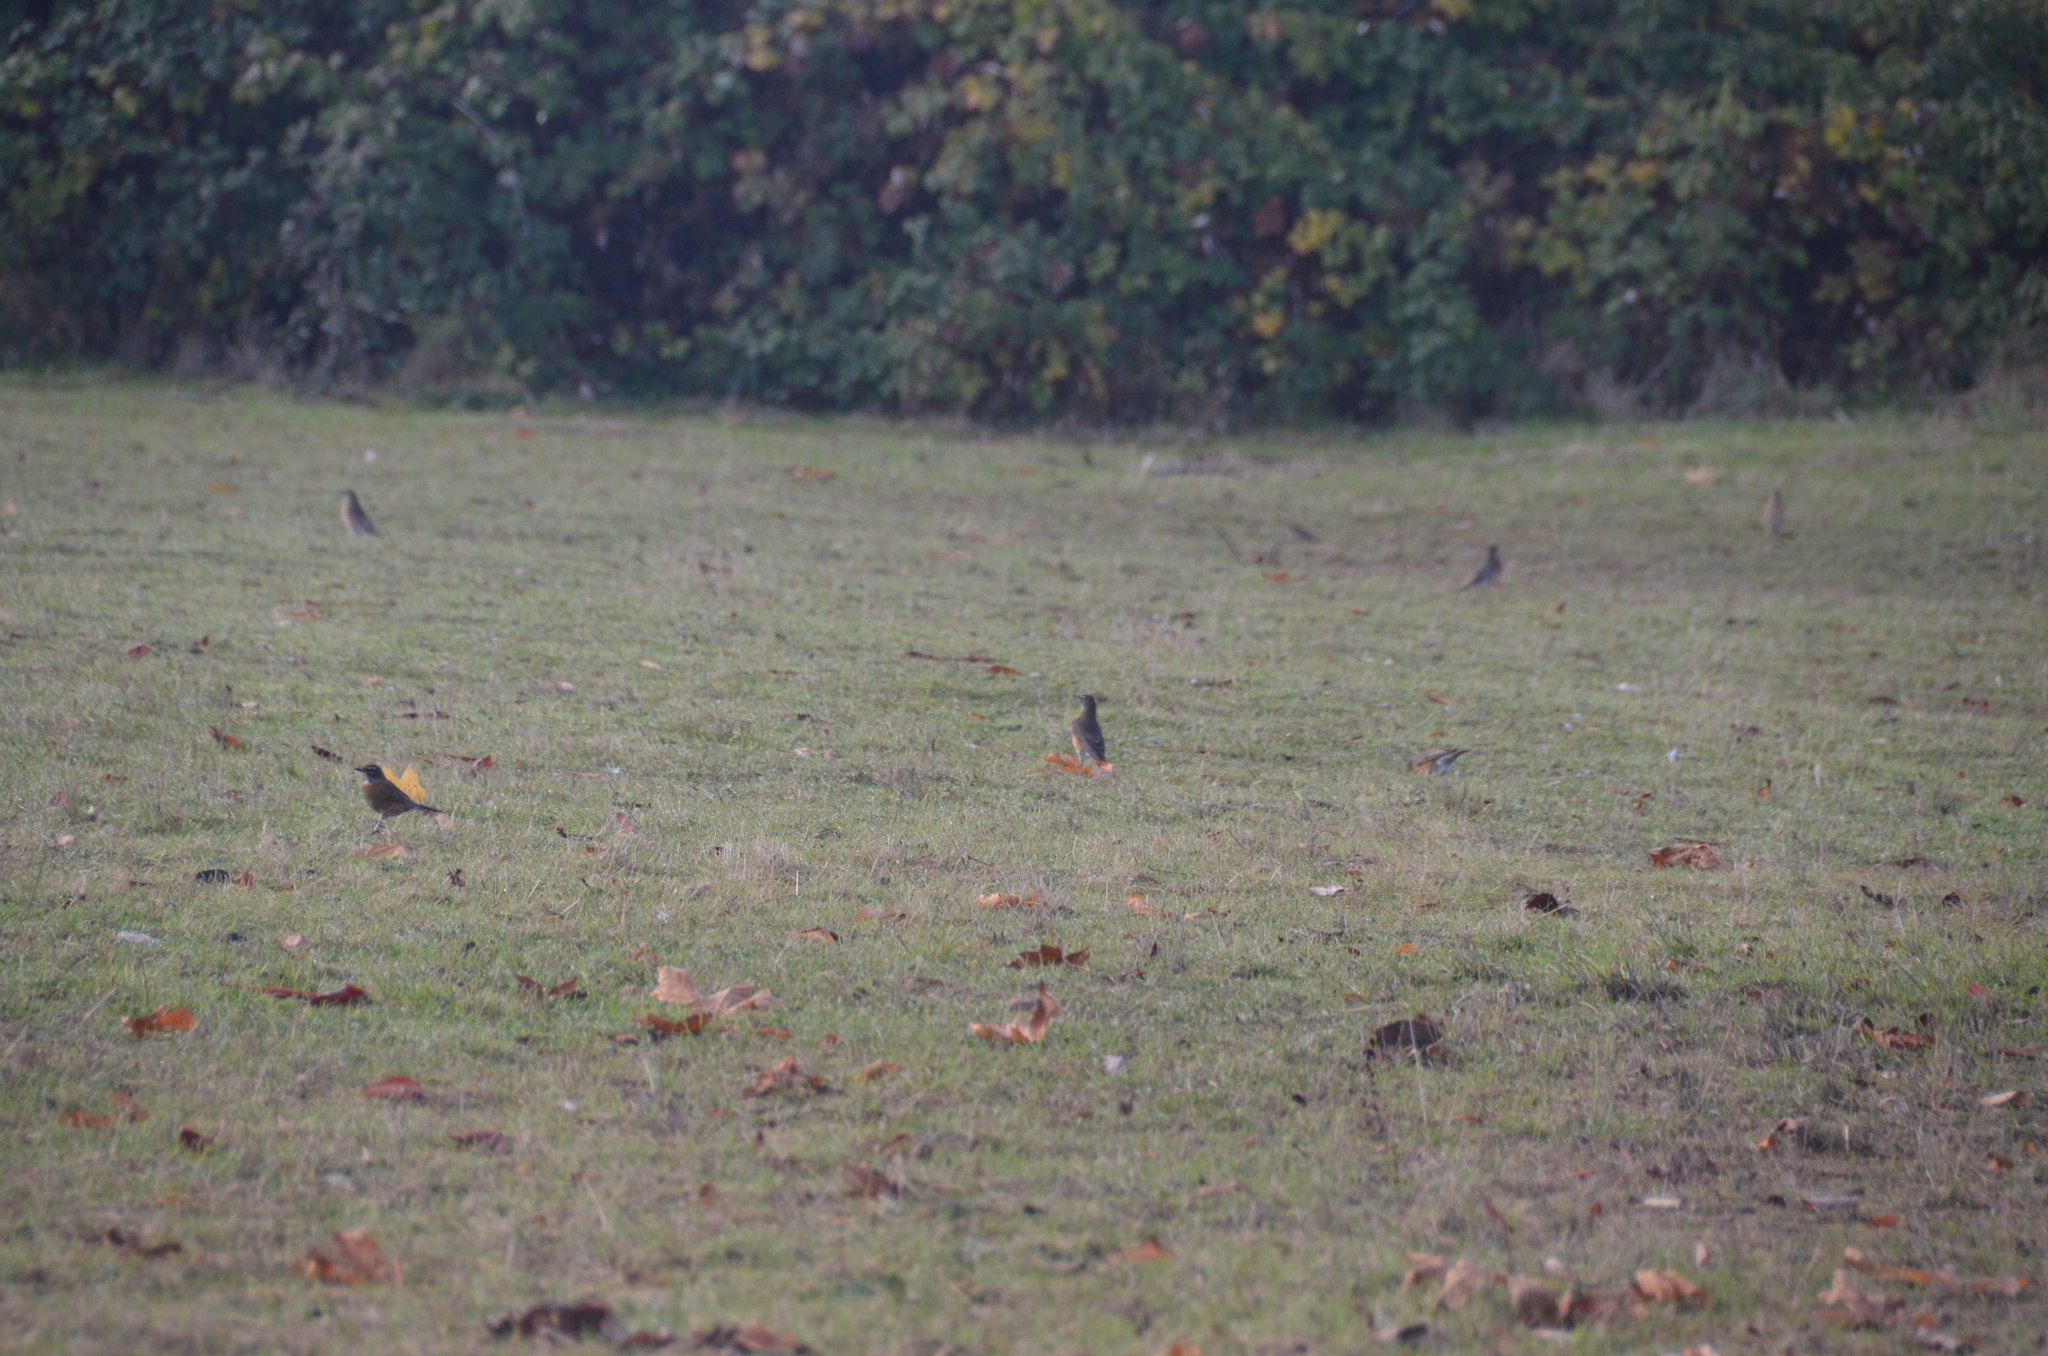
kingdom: Animalia
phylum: Chordata
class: Aves
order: Passeriformes
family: Turdidae
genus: Turdus
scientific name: Turdus migratorius
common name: American robin
